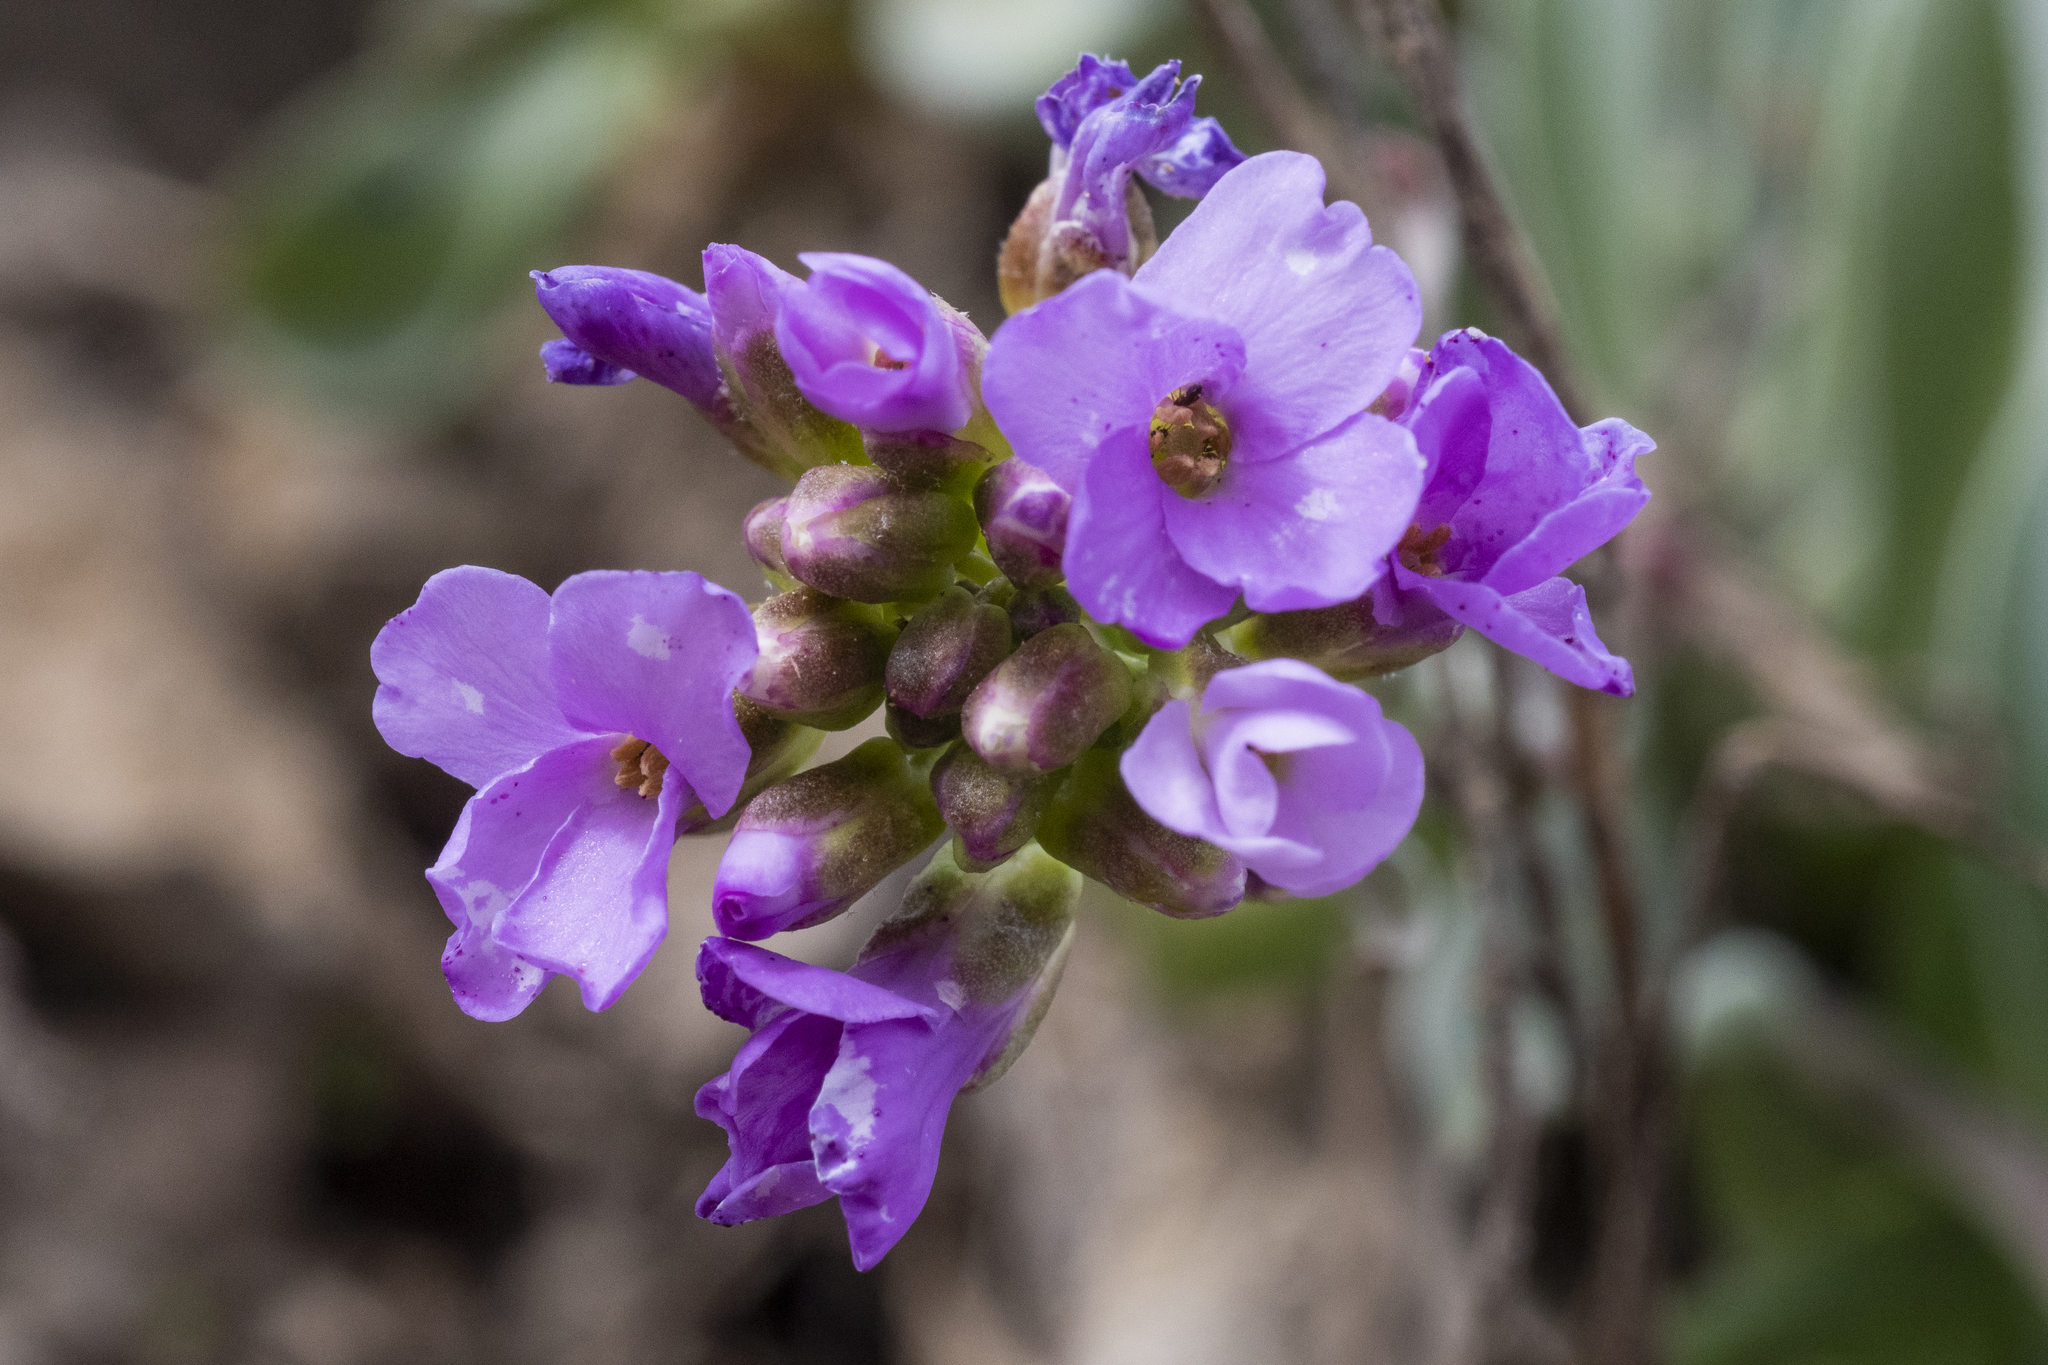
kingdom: Plantae
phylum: Tracheophyta
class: Magnoliopsida
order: Brassicales
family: Brassicaceae
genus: Phoenicaulis
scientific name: Phoenicaulis cheiranthoides
